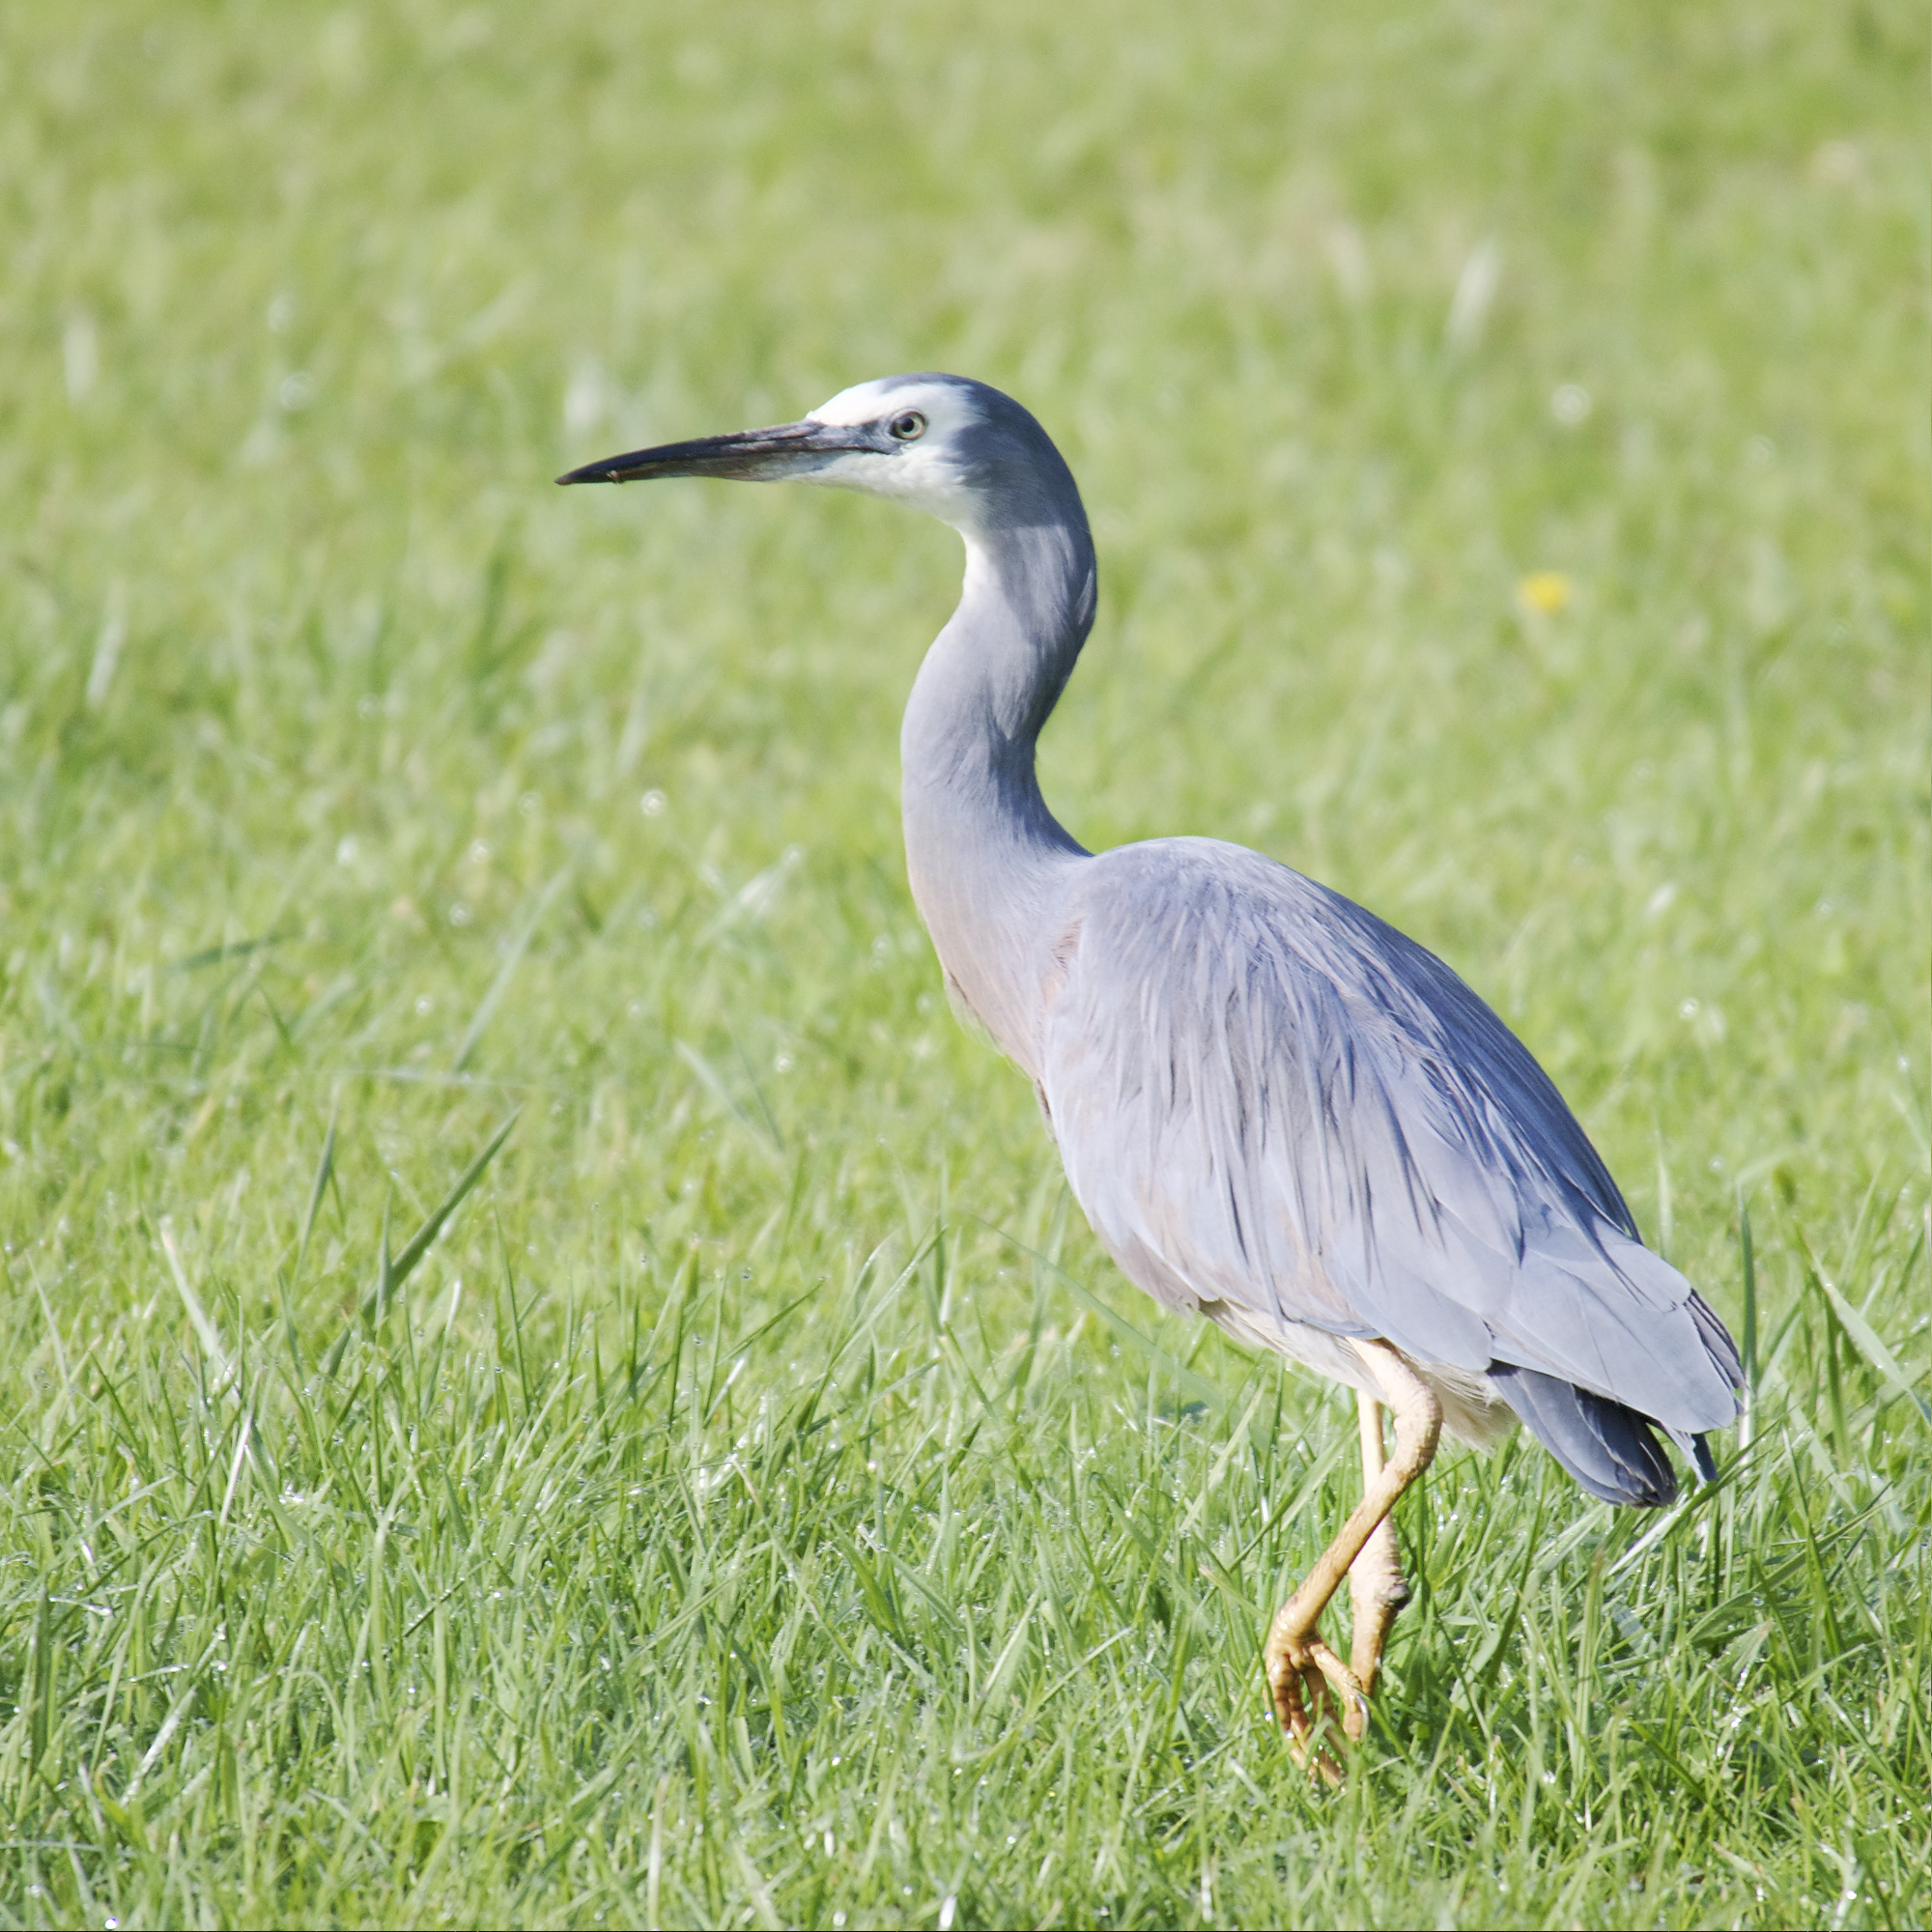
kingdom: Animalia
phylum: Chordata
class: Aves
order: Pelecaniformes
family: Ardeidae
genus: Egretta
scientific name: Egretta novaehollandiae
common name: White-faced heron
